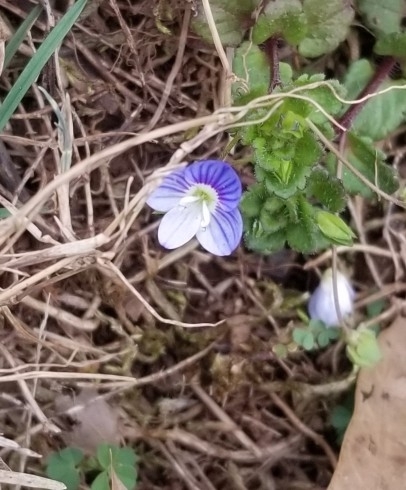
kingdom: Plantae
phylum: Tracheophyta
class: Magnoliopsida
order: Lamiales
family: Plantaginaceae
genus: Veronica
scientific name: Veronica persica
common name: Common field-speedwell
